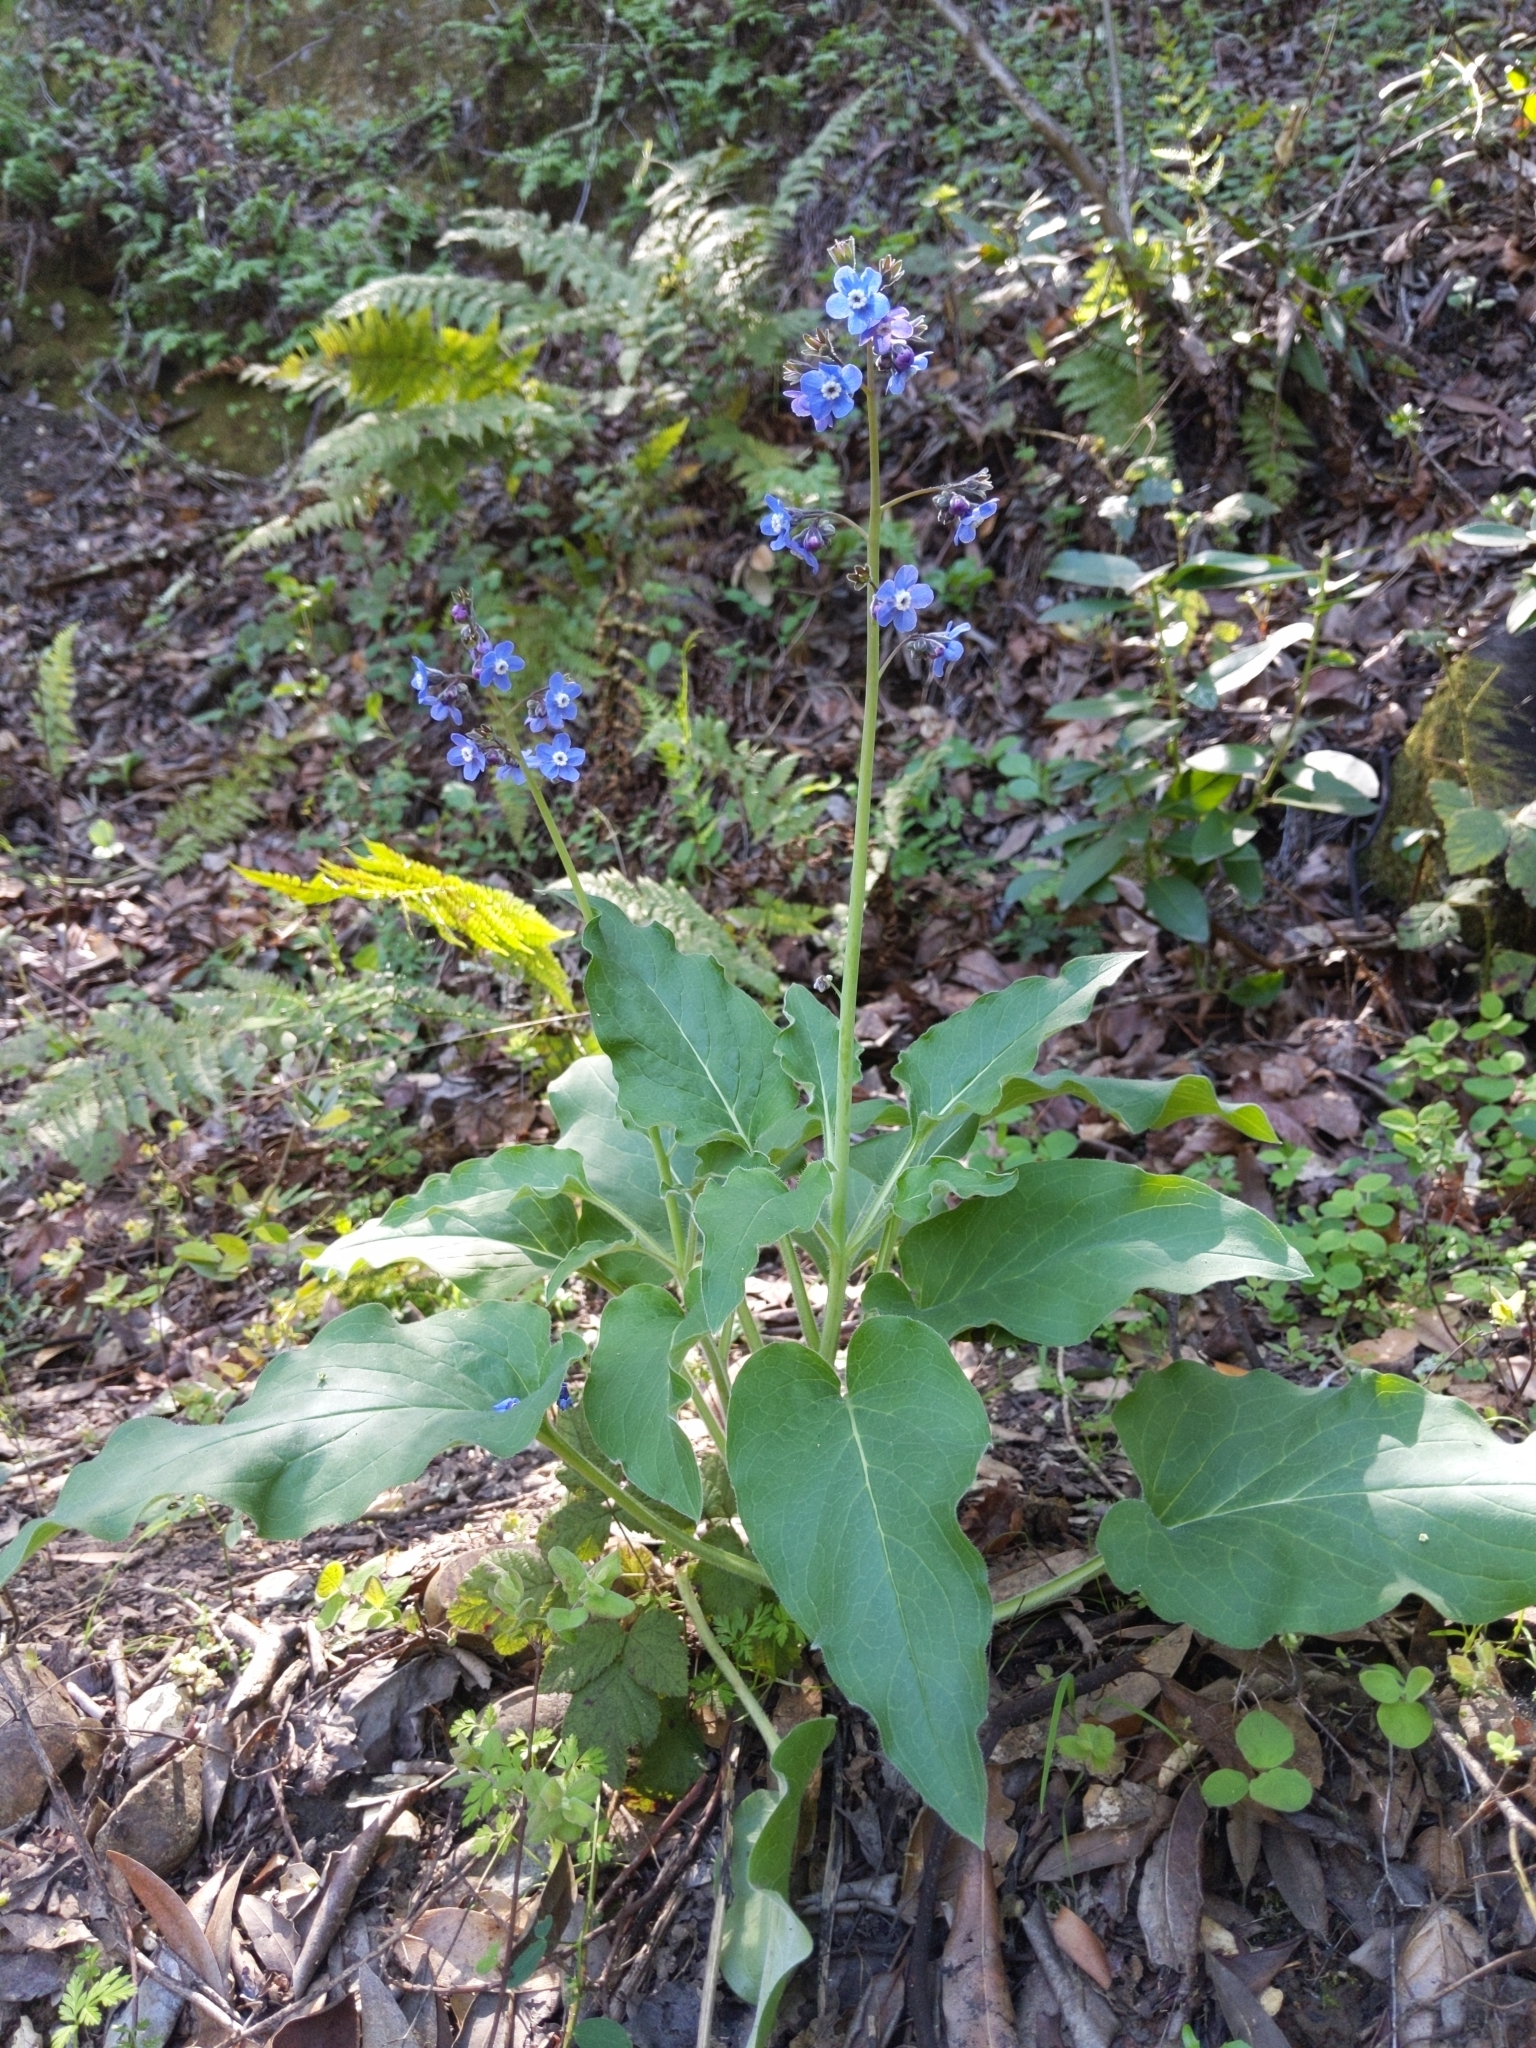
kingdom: Plantae
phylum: Tracheophyta
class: Magnoliopsida
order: Boraginales
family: Boraginaceae
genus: Adelinia
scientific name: Adelinia grande
